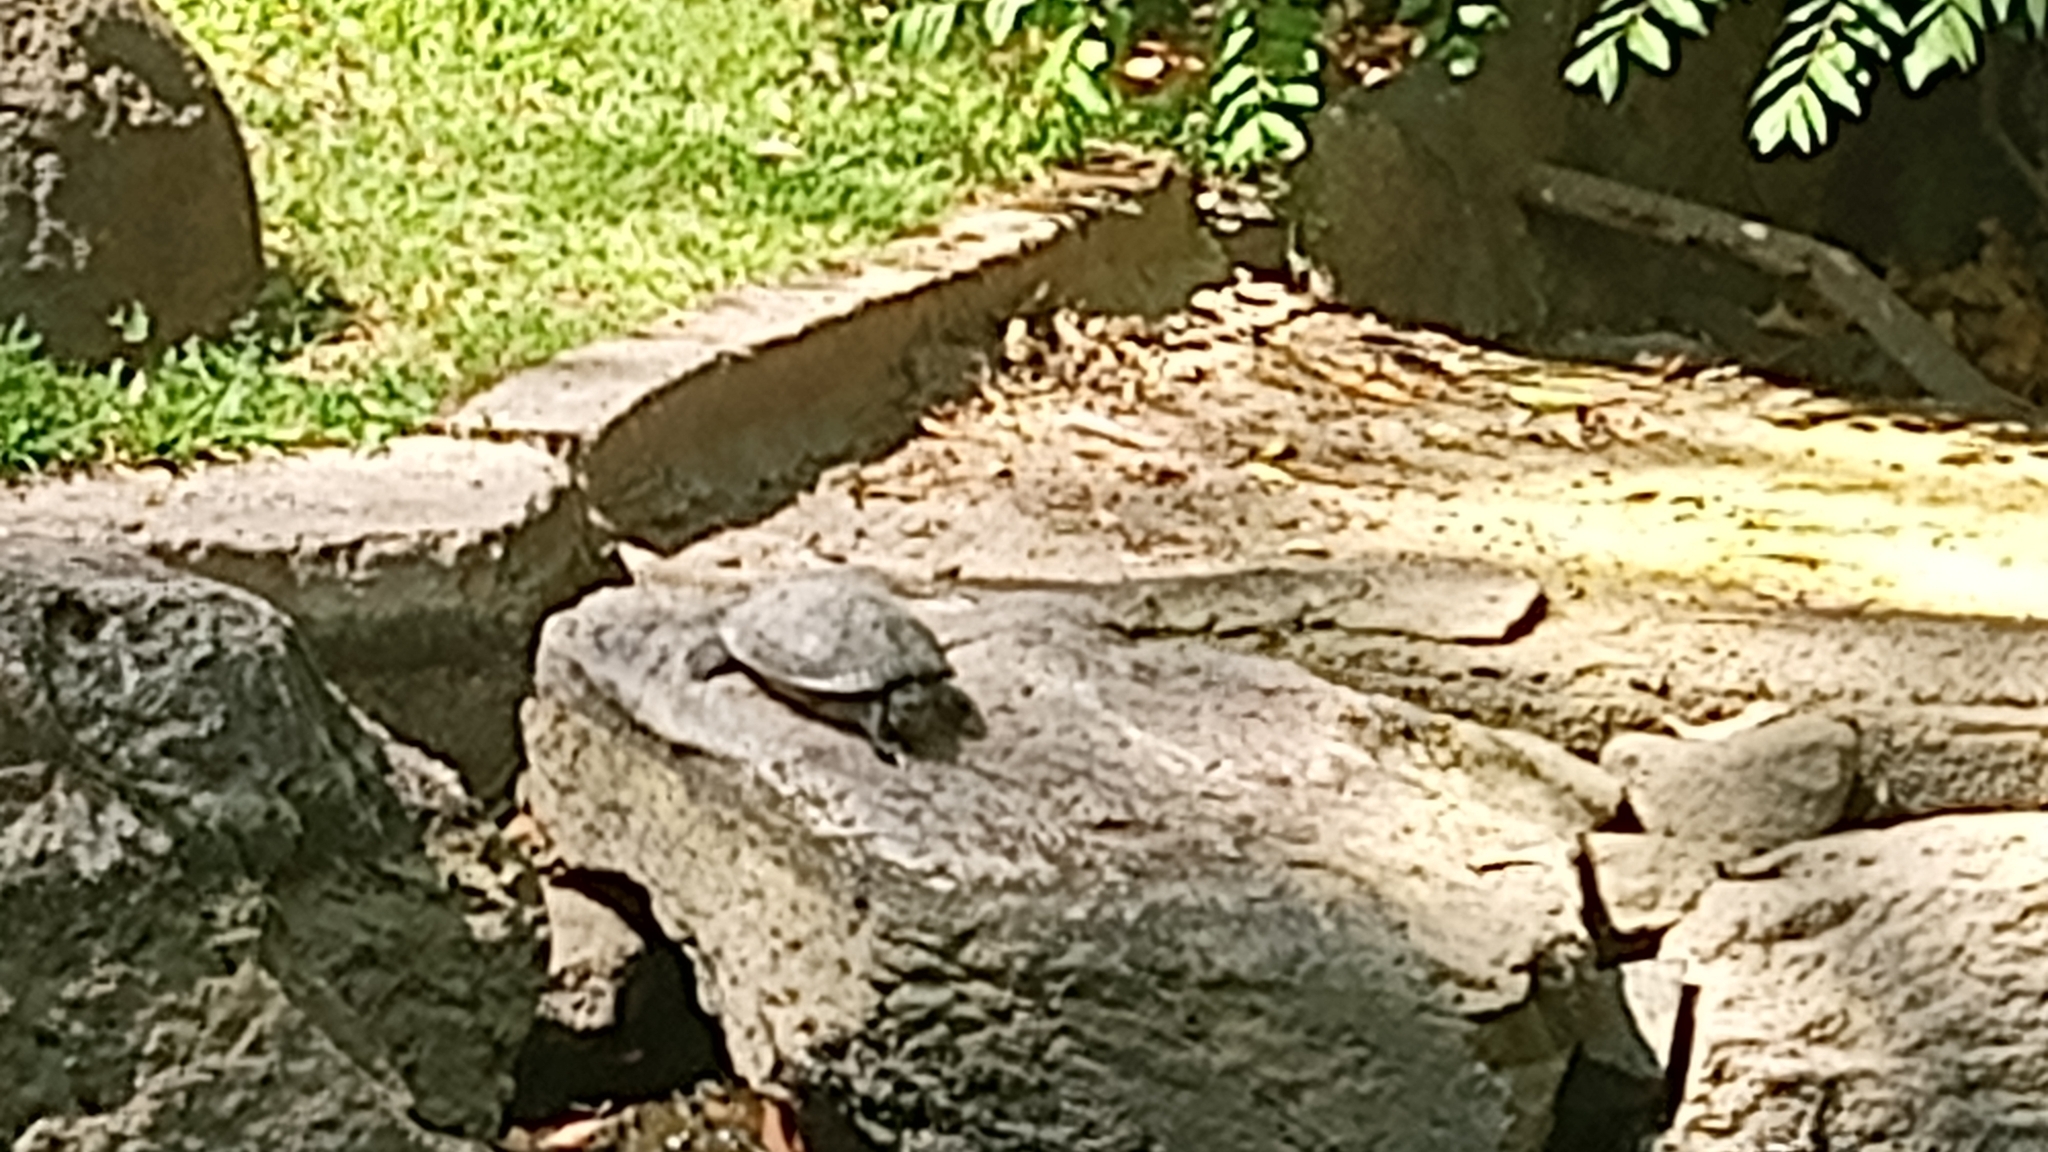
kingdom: Animalia
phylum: Chordata
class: Testudines
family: Kinosternidae
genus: Kinosternon
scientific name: Kinosternon integrum
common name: Mexican mud turtle
